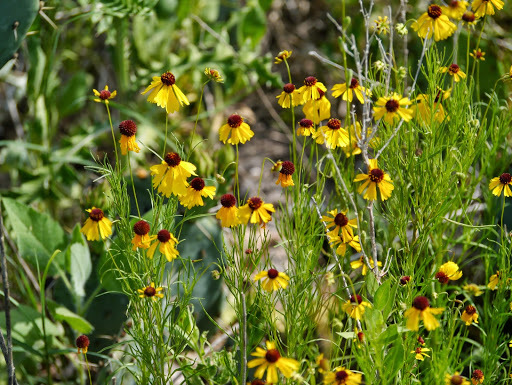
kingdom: Plantae
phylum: Tracheophyta
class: Magnoliopsida
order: Asterales
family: Asteraceae
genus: Rudbeckia
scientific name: Rudbeckia hirta
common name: Black-eyed-susan
